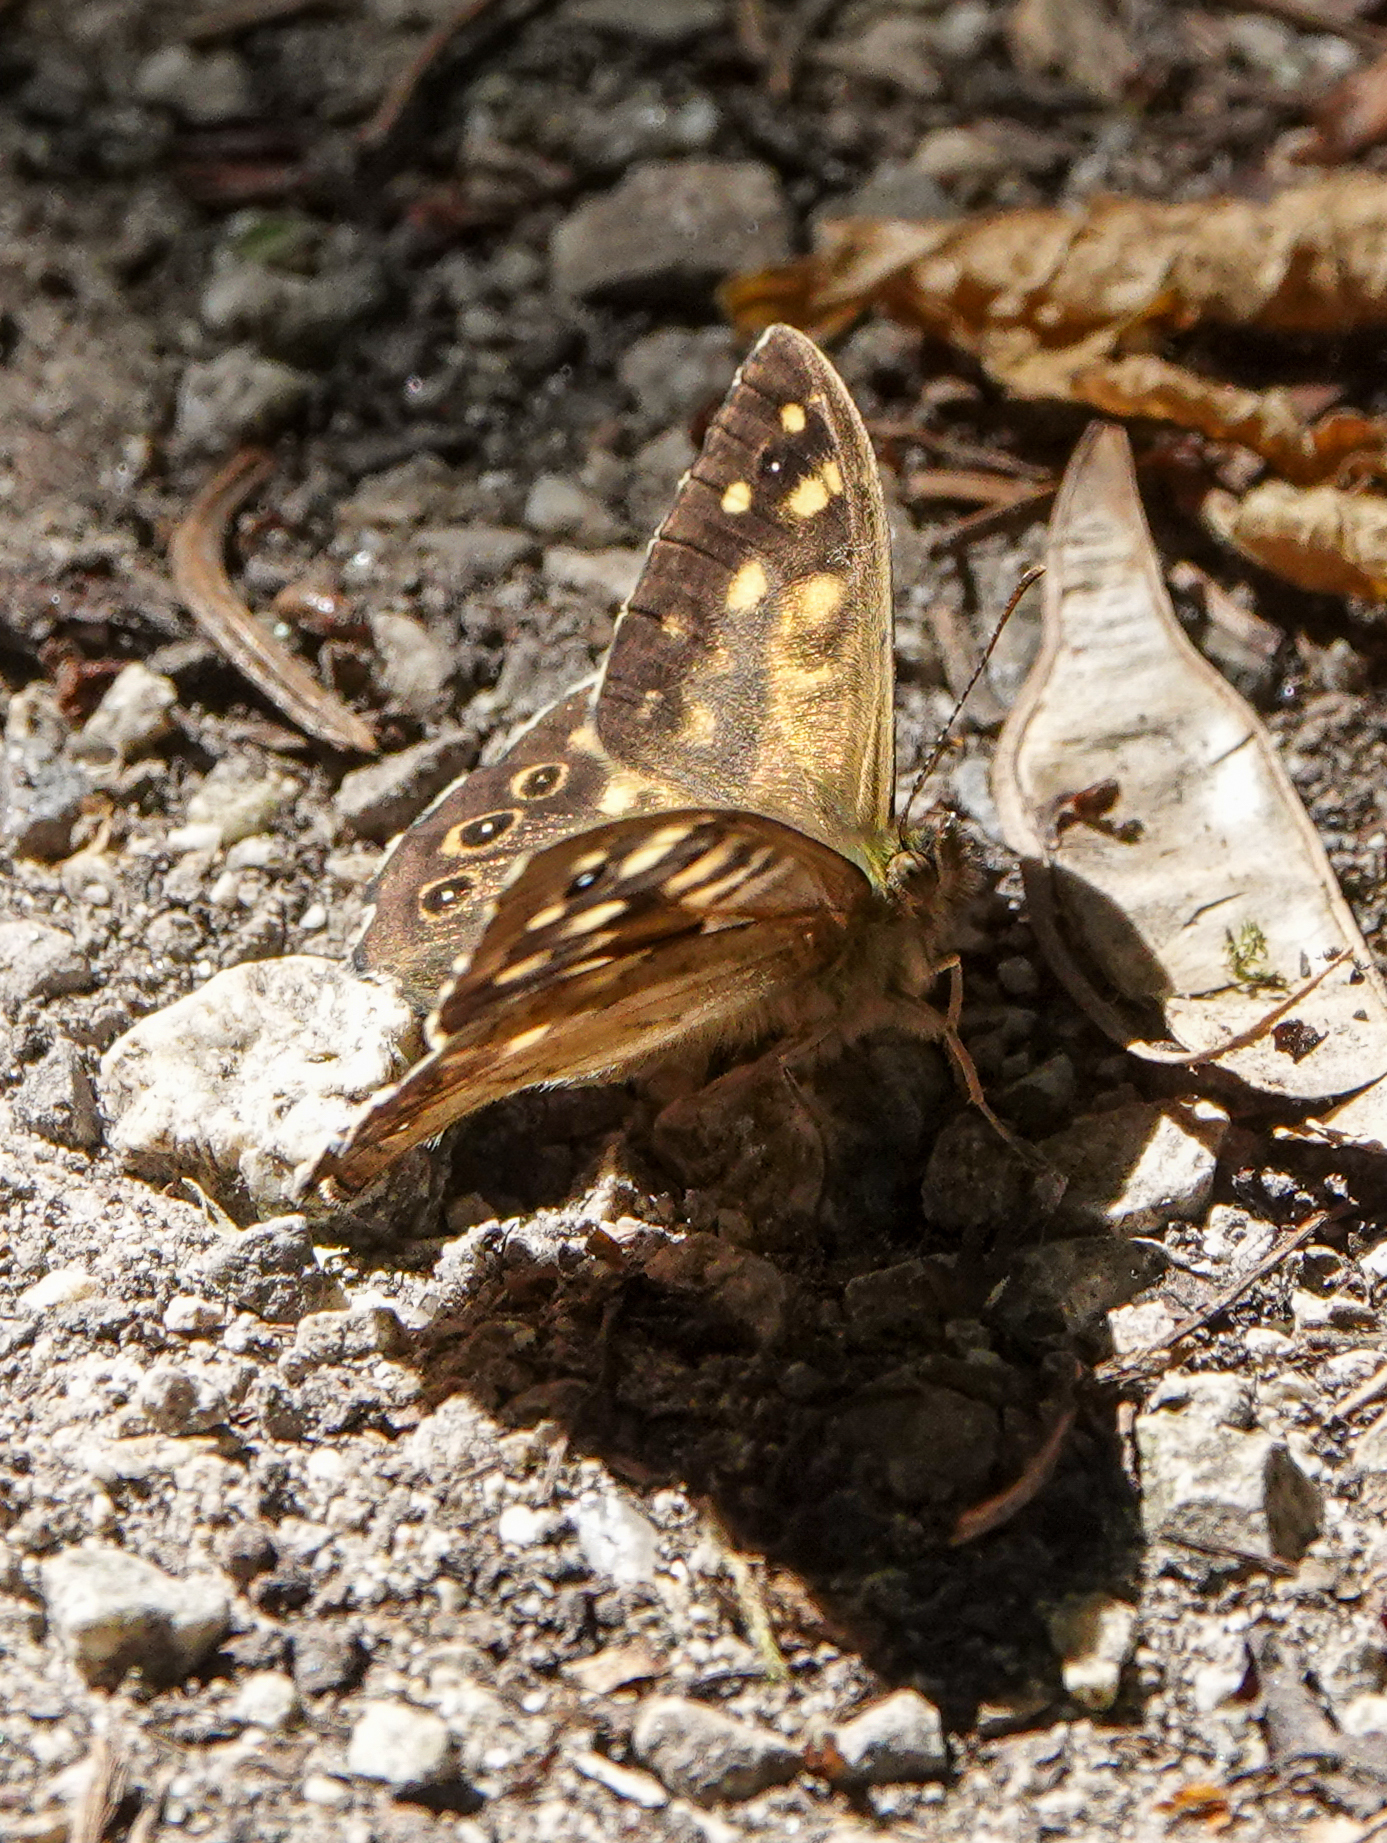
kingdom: Animalia
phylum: Arthropoda
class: Insecta
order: Lepidoptera
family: Nymphalidae
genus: Pararge
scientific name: Pararge aegeria
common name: Speckled wood
